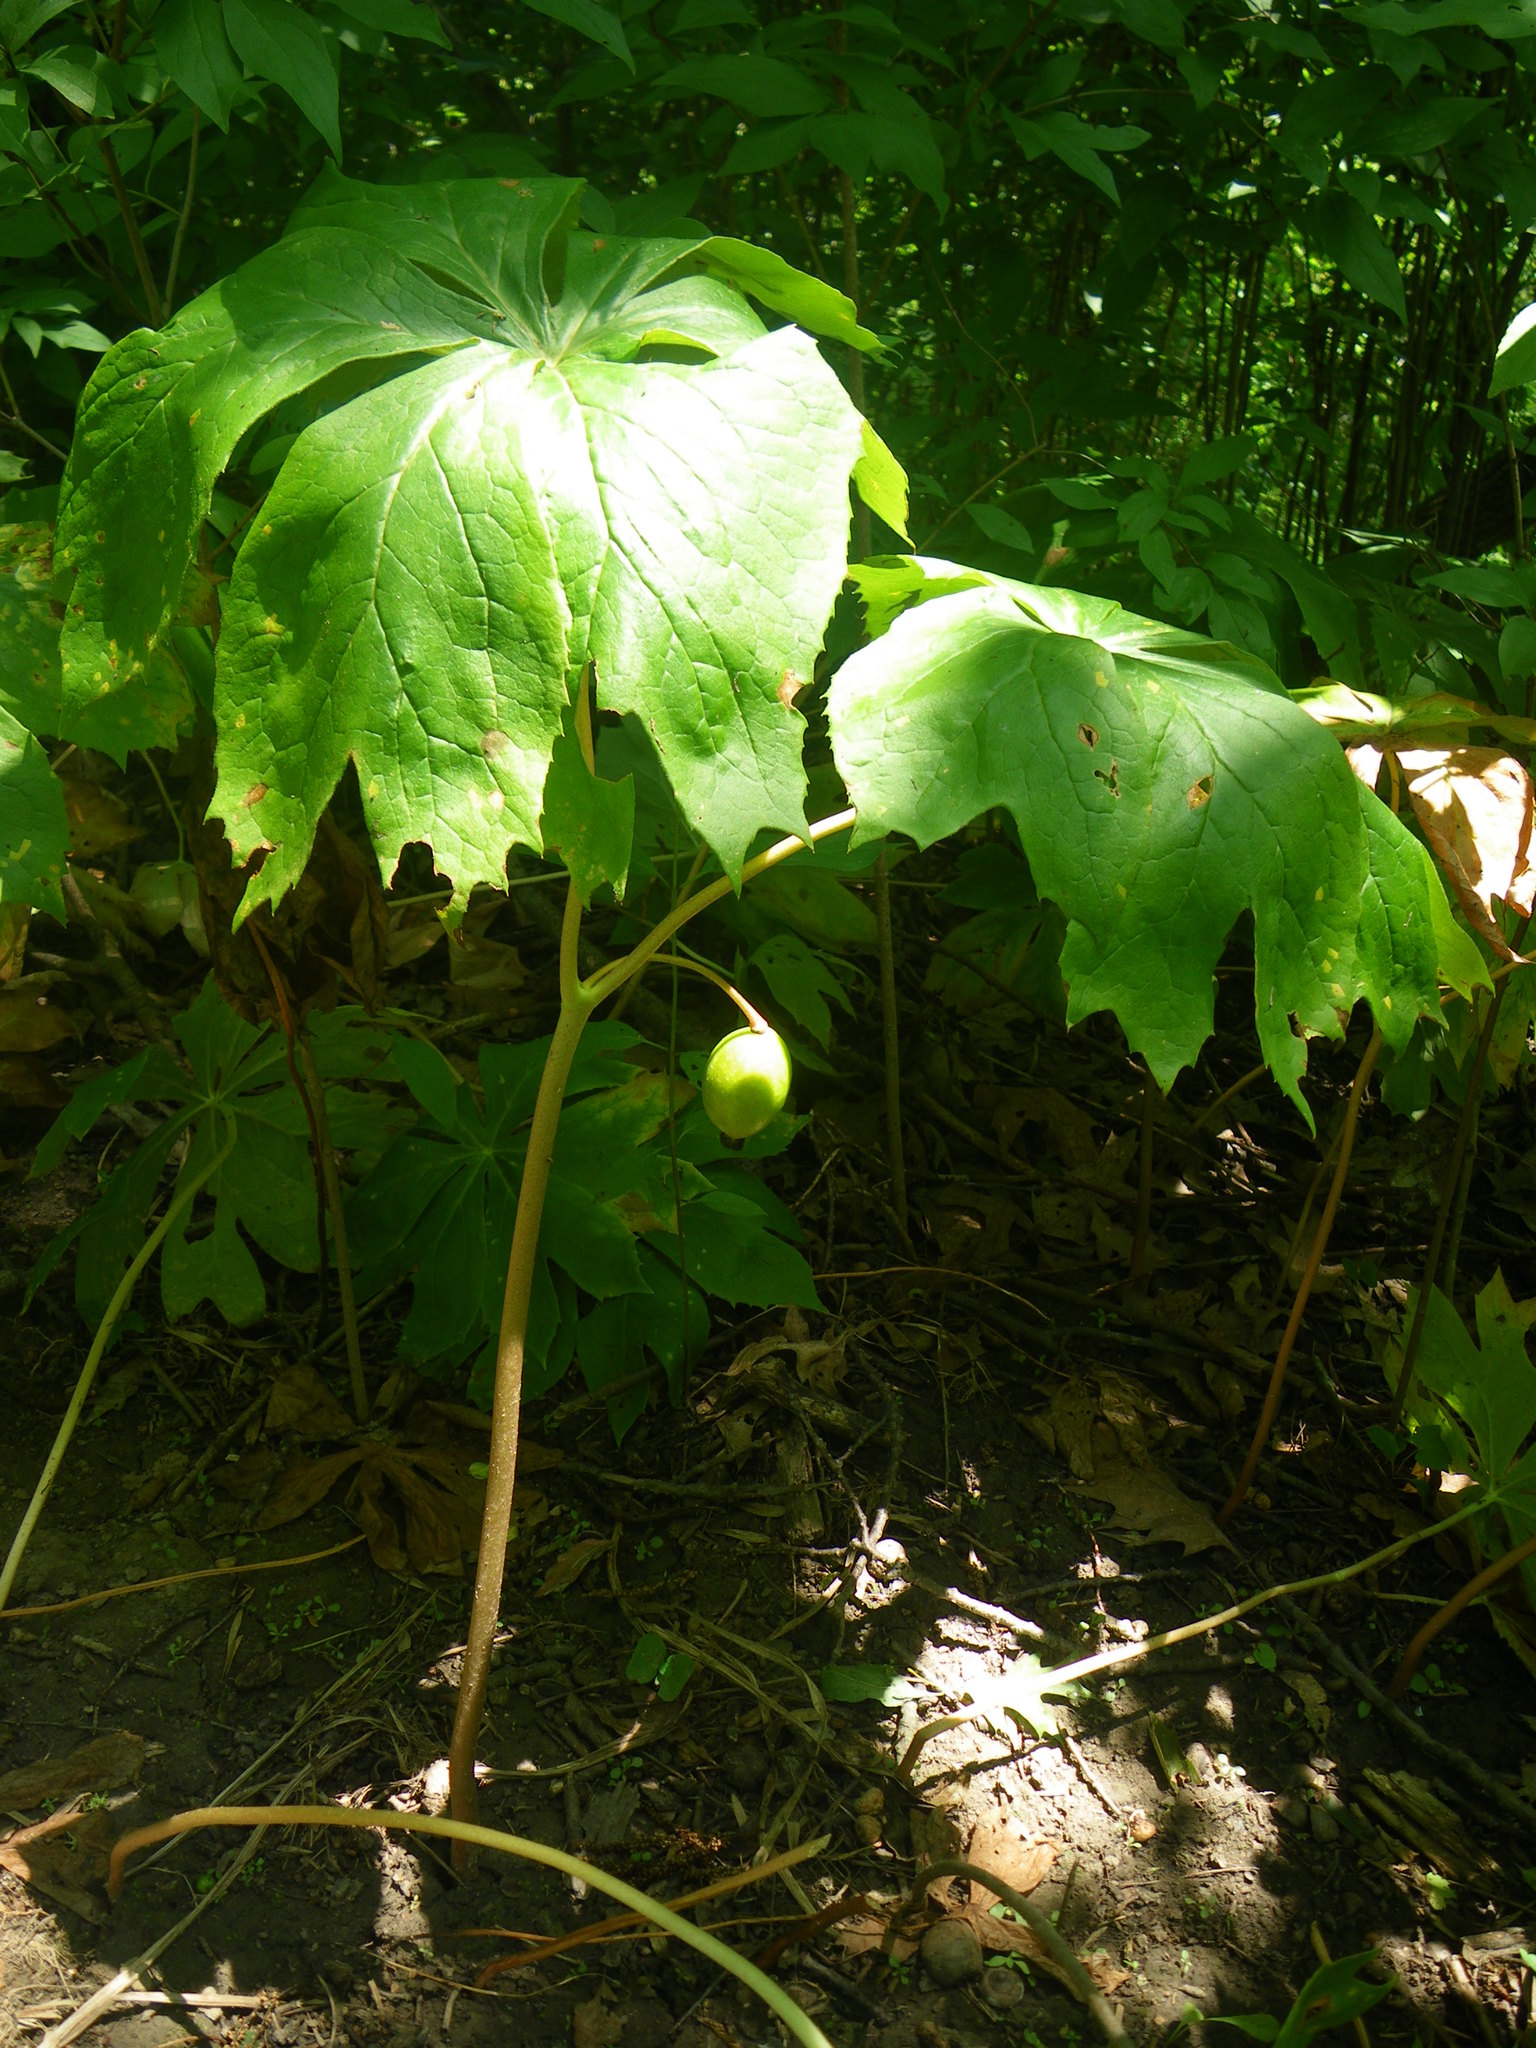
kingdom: Plantae
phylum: Tracheophyta
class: Magnoliopsida
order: Ranunculales
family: Berberidaceae
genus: Podophyllum
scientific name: Podophyllum peltatum
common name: Wild mandrake
